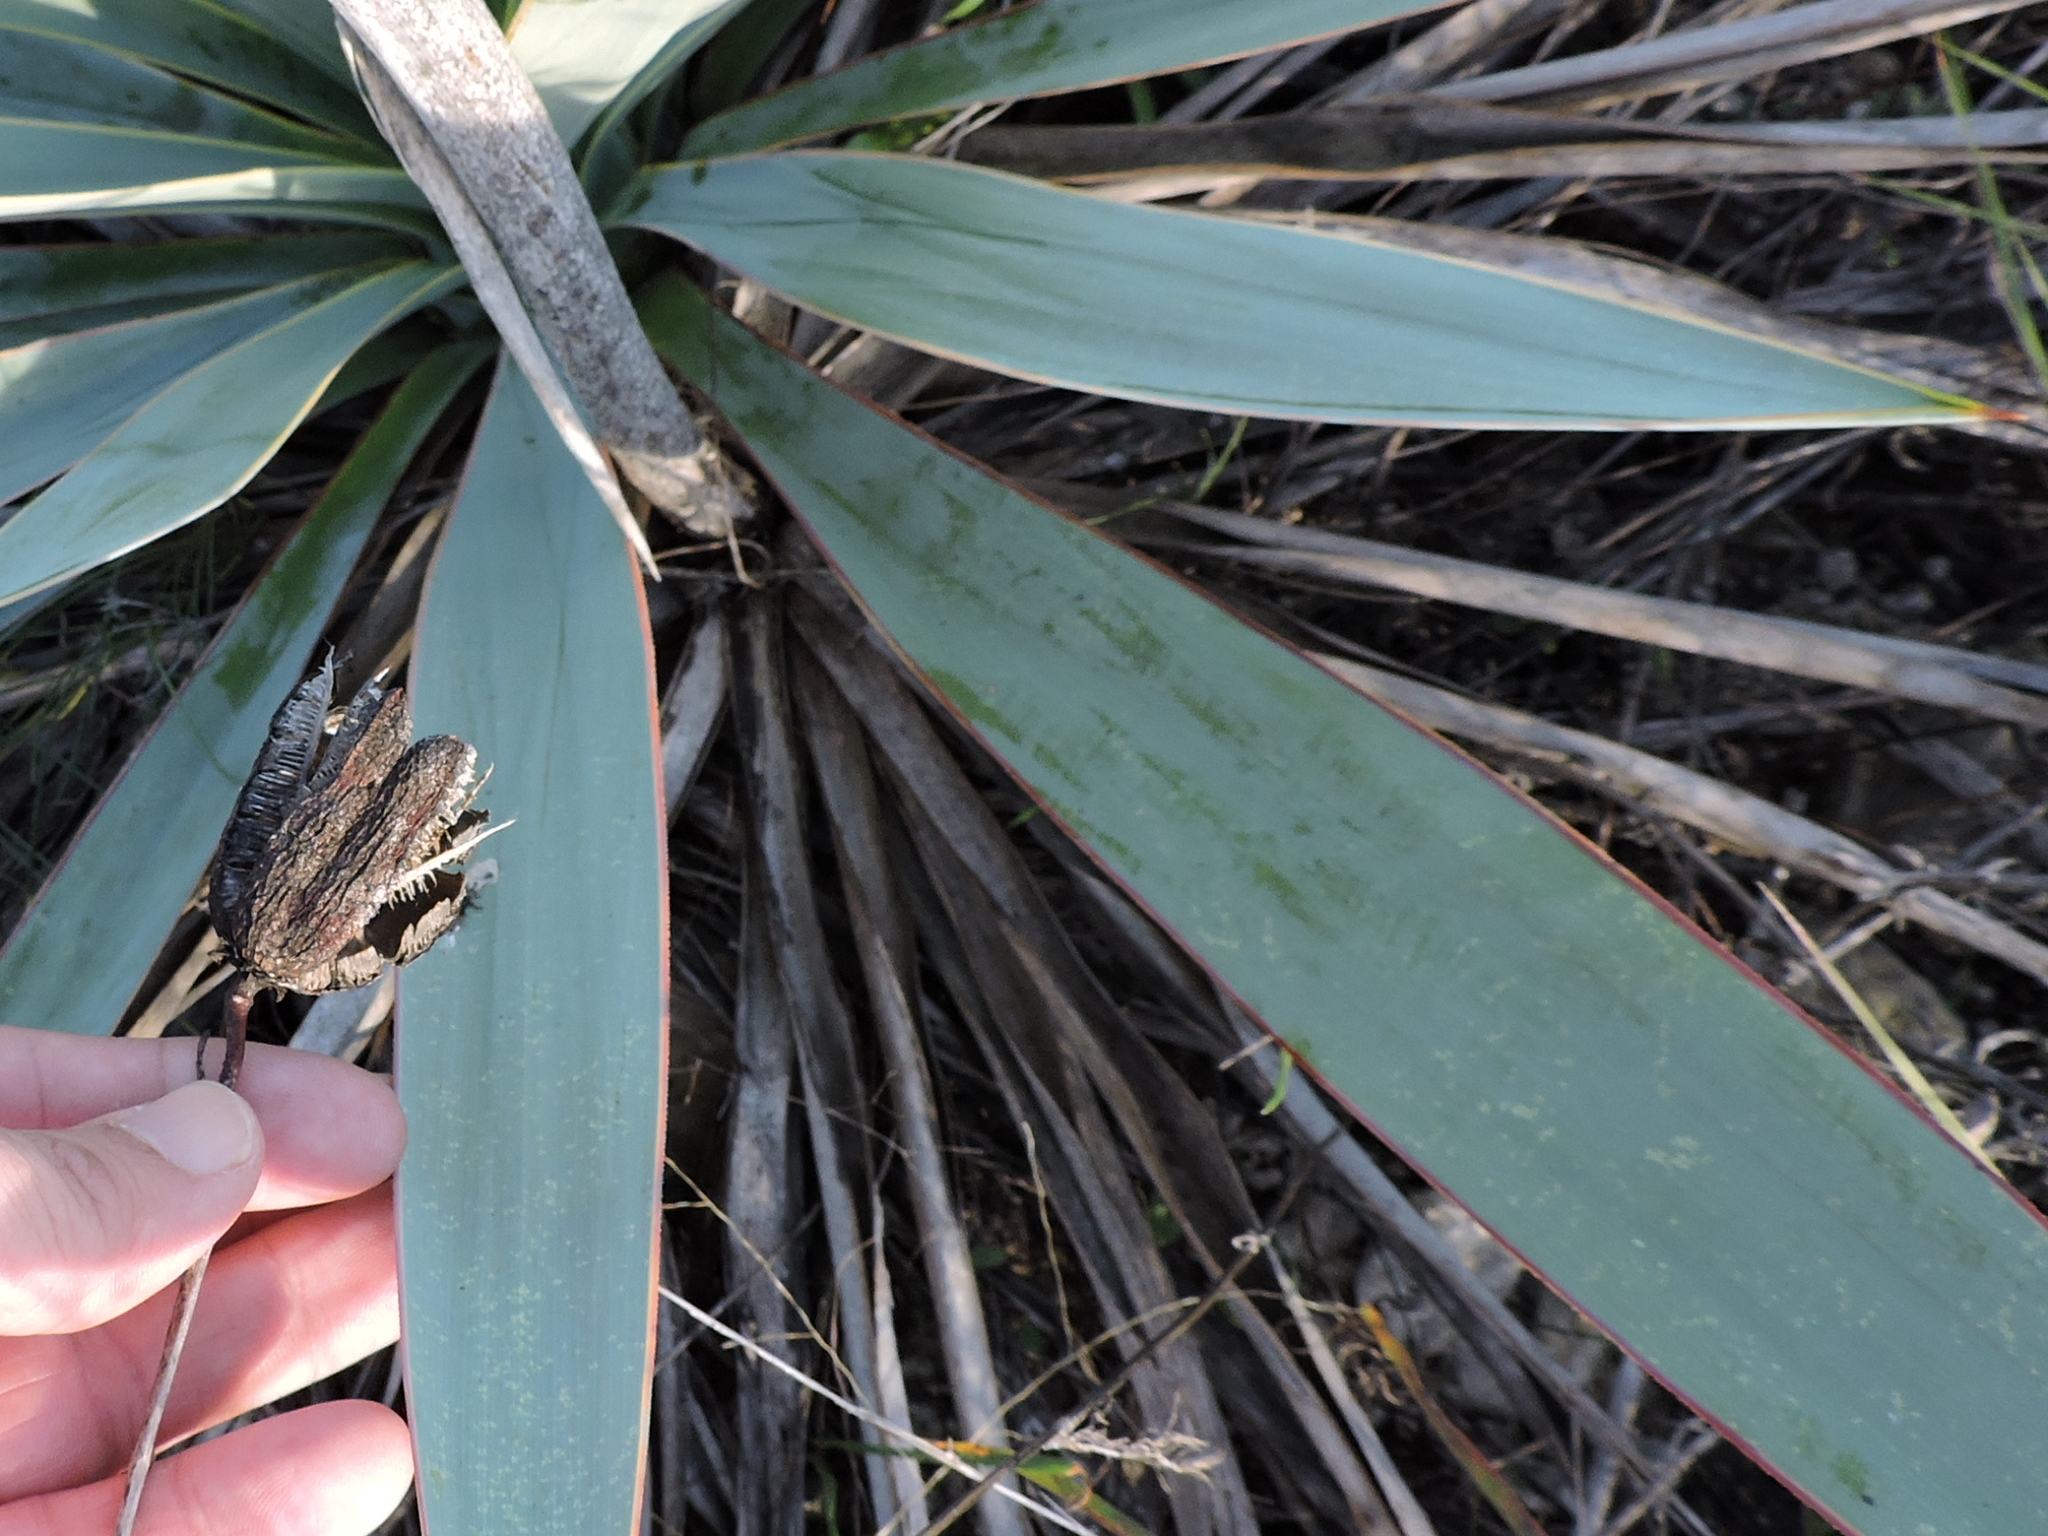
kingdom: Plantae
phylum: Tracheophyta
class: Liliopsida
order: Asparagales
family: Asparagaceae
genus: Yucca
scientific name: Yucca pallida
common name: Pale leaf yucca
